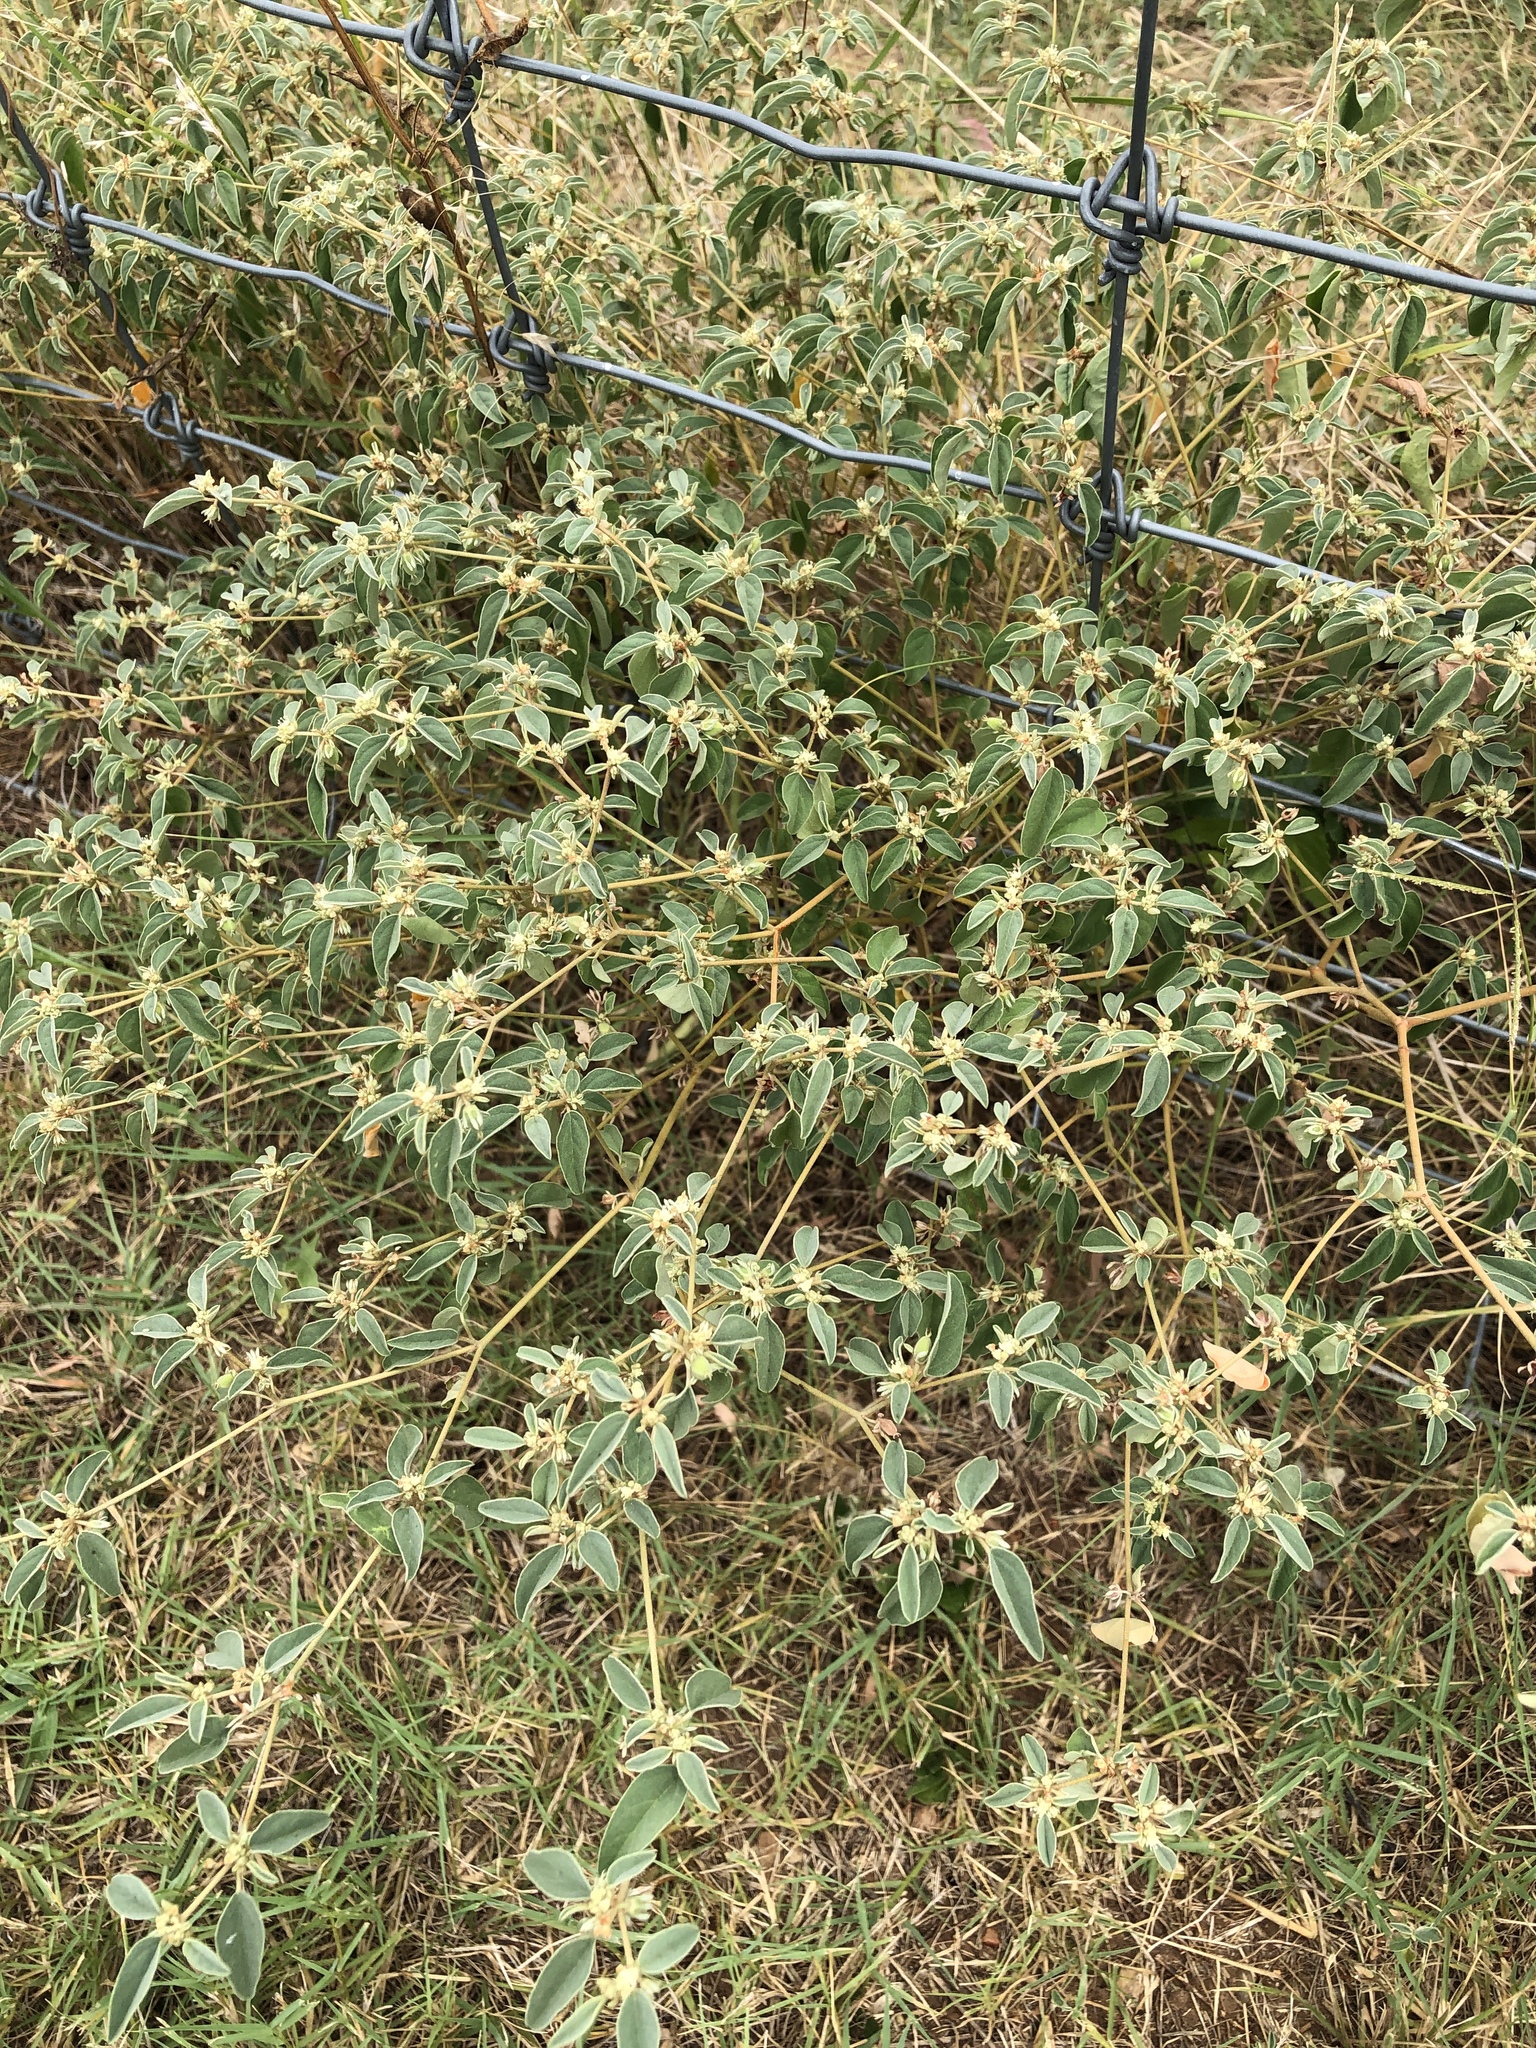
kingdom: Plantae
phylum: Tracheophyta
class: Magnoliopsida
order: Malpighiales
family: Euphorbiaceae
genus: Croton
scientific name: Croton monanthogynus
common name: One-seed croton
